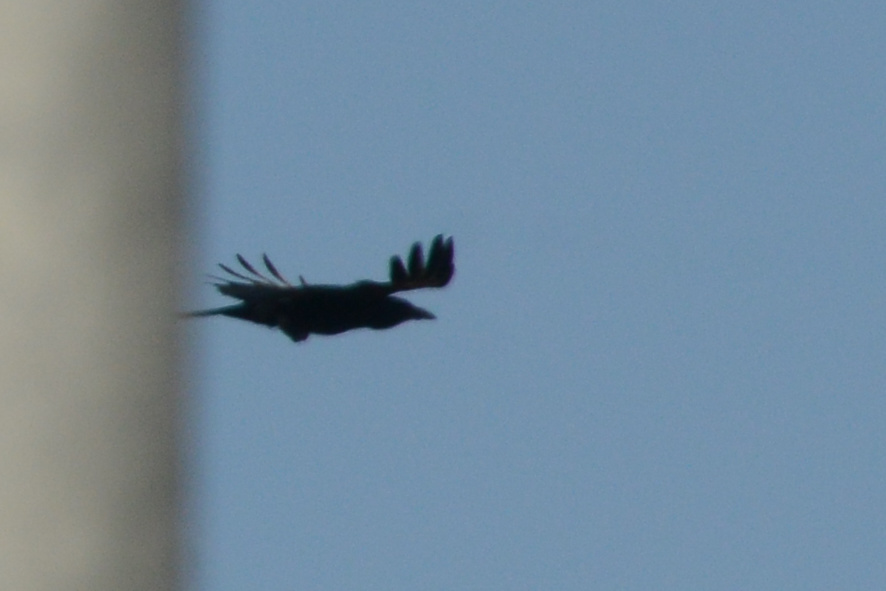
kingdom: Animalia
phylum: Chordata
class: Aves
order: Passeriformes
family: Corvidae
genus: Corvus
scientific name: Corvus brachyrhynchos
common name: American crow
